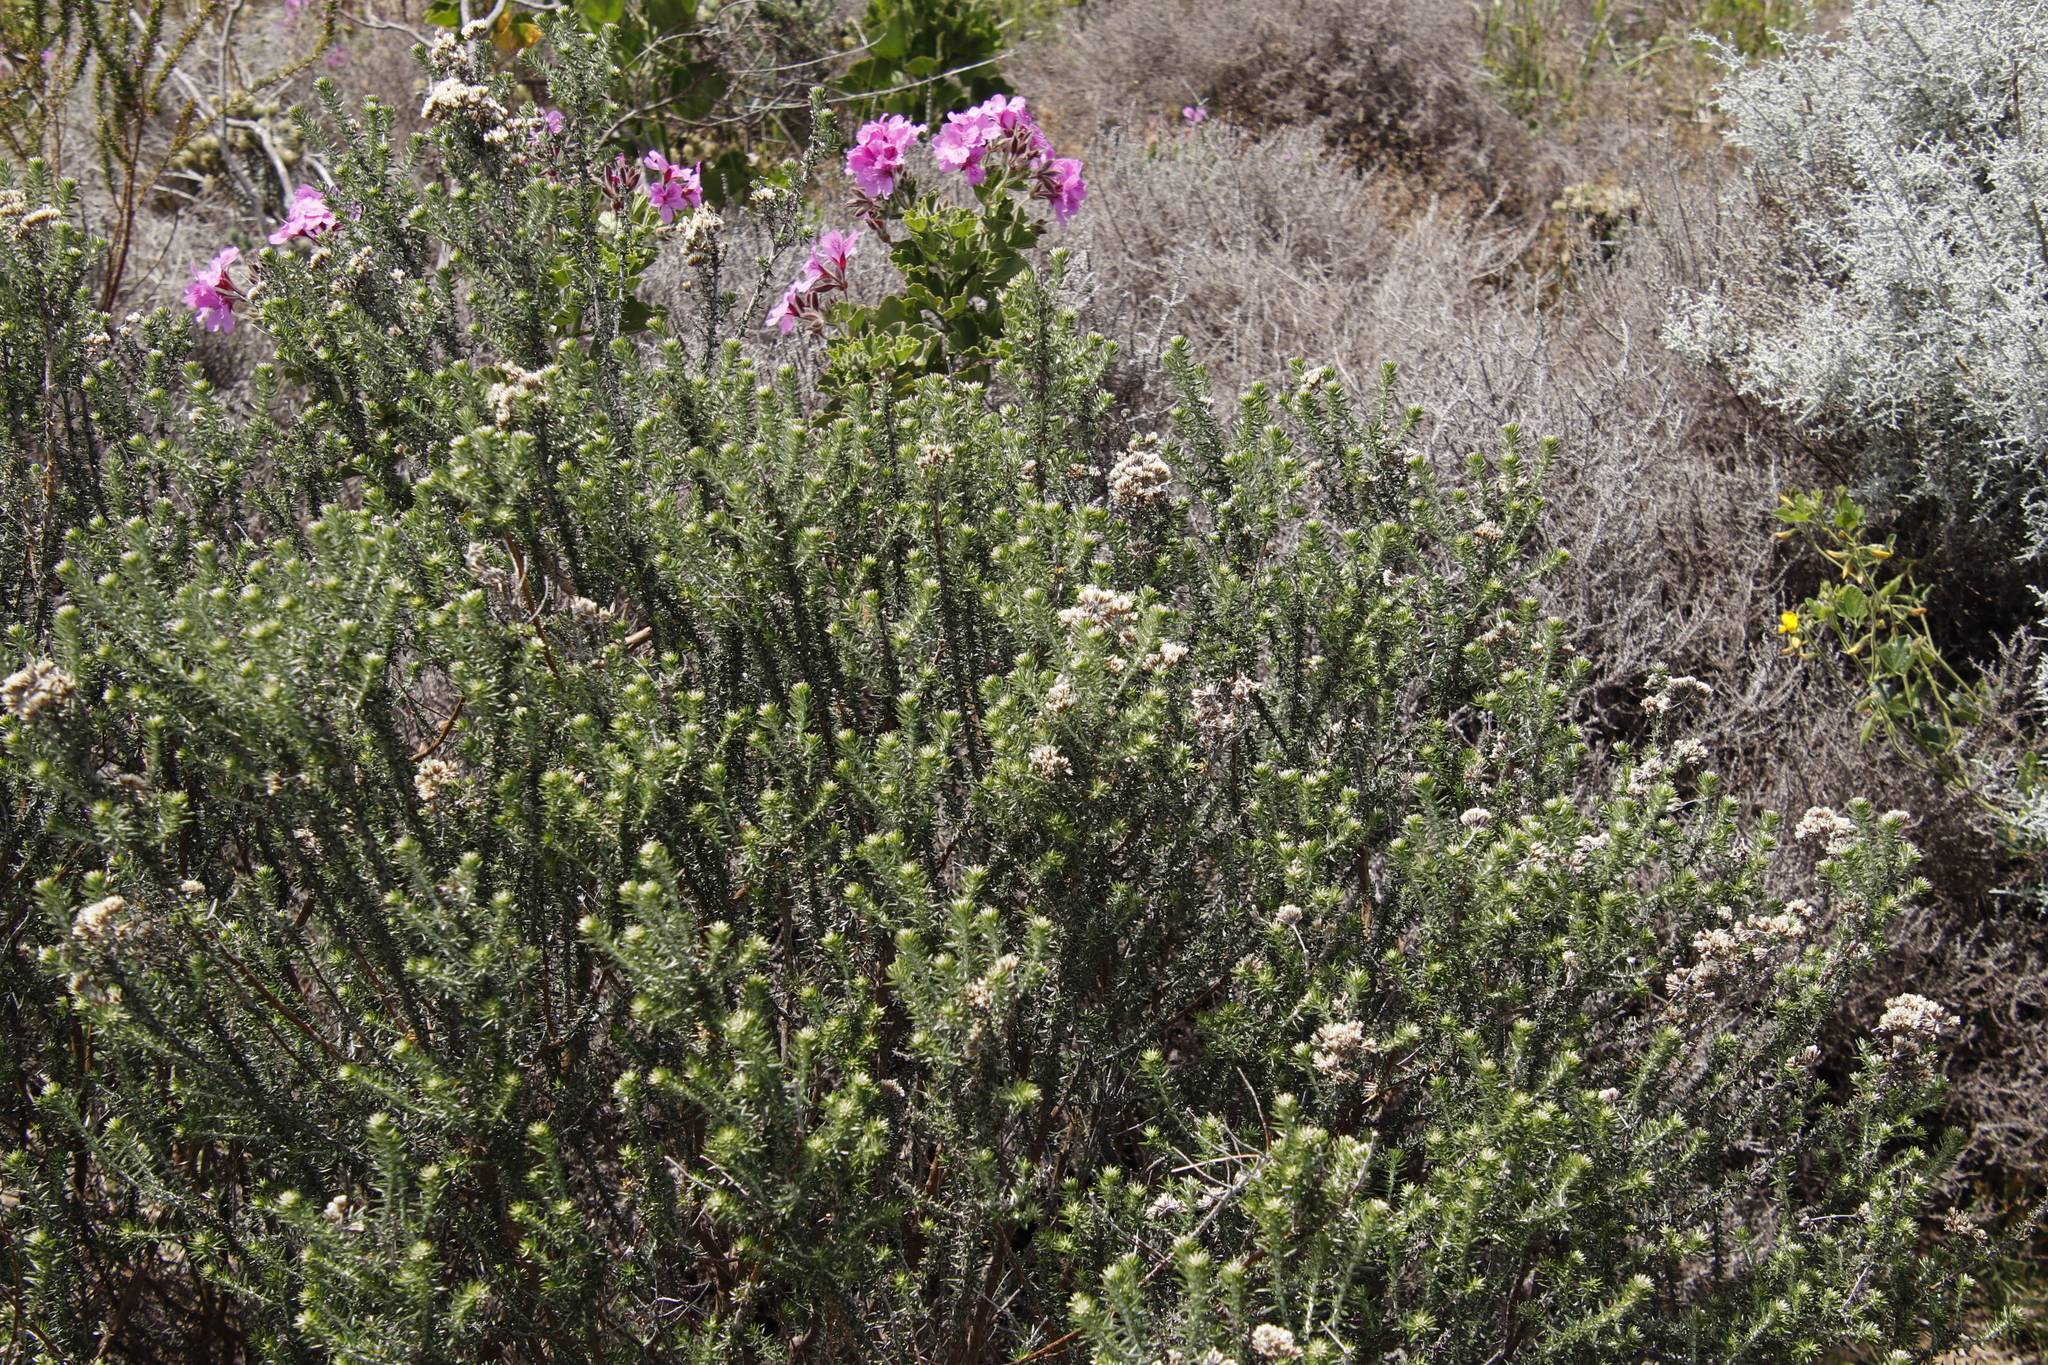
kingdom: Plantae
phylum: Tracheophyta
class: Magnoliopsida
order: Asterales
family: Asteraceae
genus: Metalasia
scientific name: Metalasia densa
